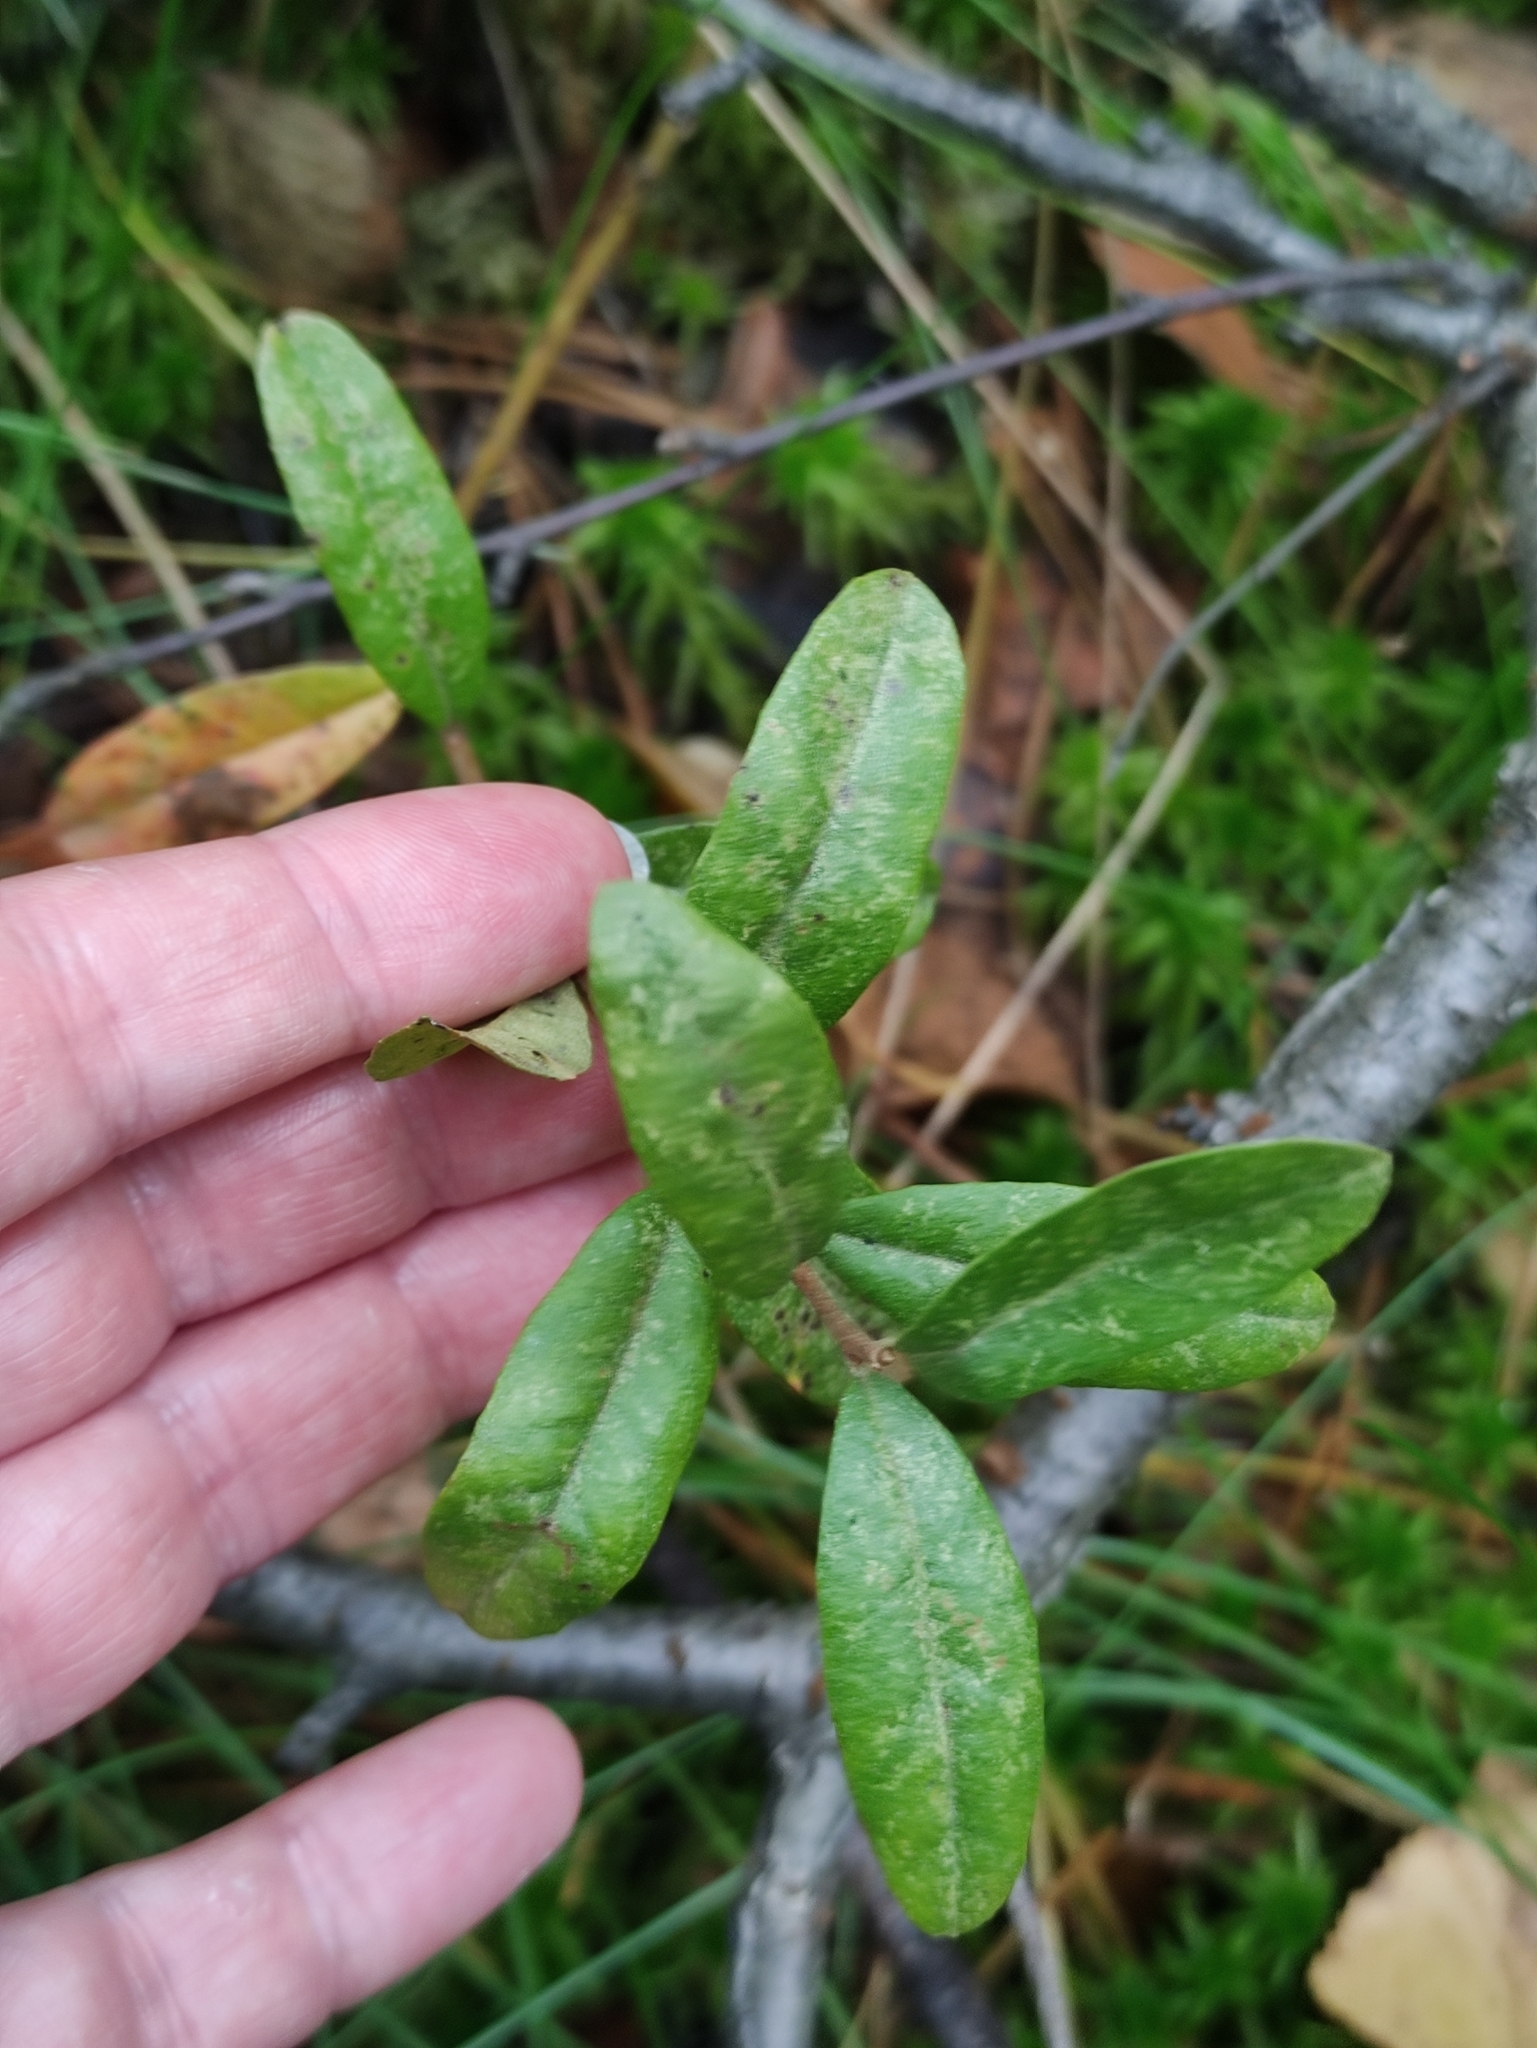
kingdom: Plantae
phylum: Tracheophyta
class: Magnoliopsida
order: Ericales
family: Ericaceae
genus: Chamaedaphne
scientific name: Chamaedaphne calyculata
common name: Leatherleaf
